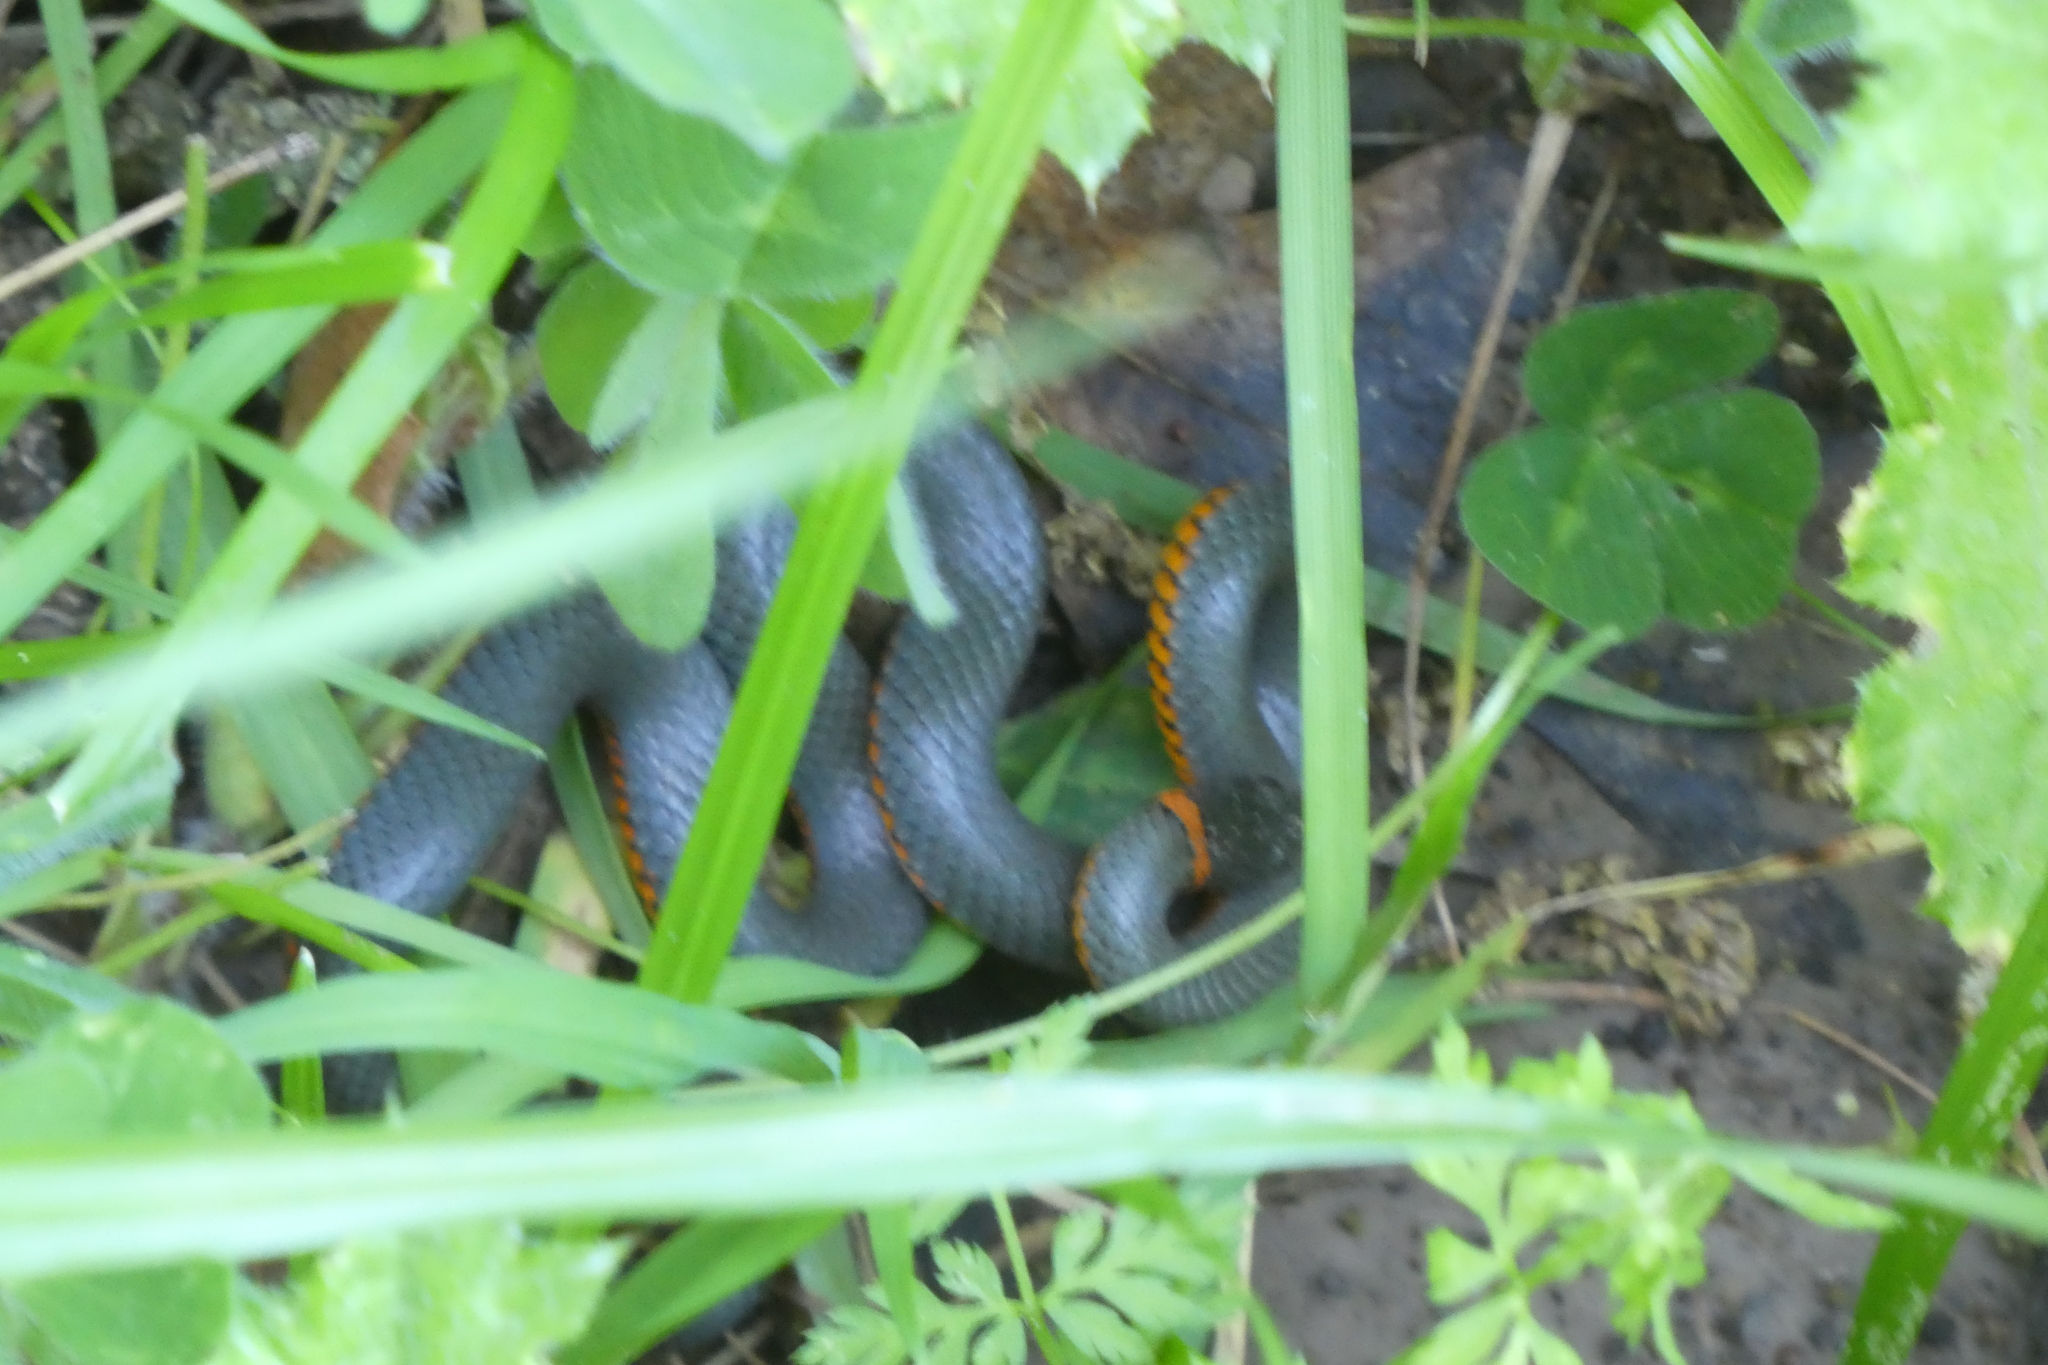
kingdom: Animalia
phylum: Chordata
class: Squamata
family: Colubridae
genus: Diadophis
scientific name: Diadophis punctatus
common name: Ringneck snake
